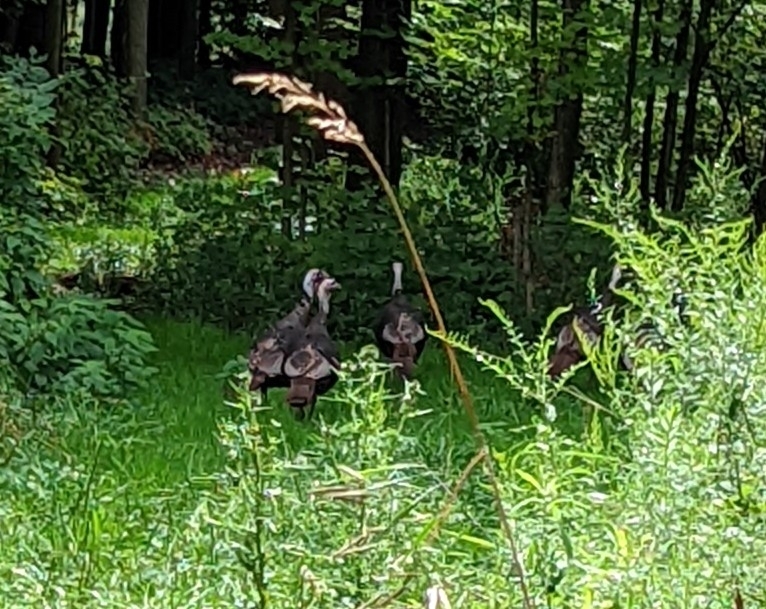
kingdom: Animalia
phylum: Chordata
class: Aves
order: Galliformes
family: Phasianidae
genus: Meleagris
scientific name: Meleagris gallopavo
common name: Wild turkey
